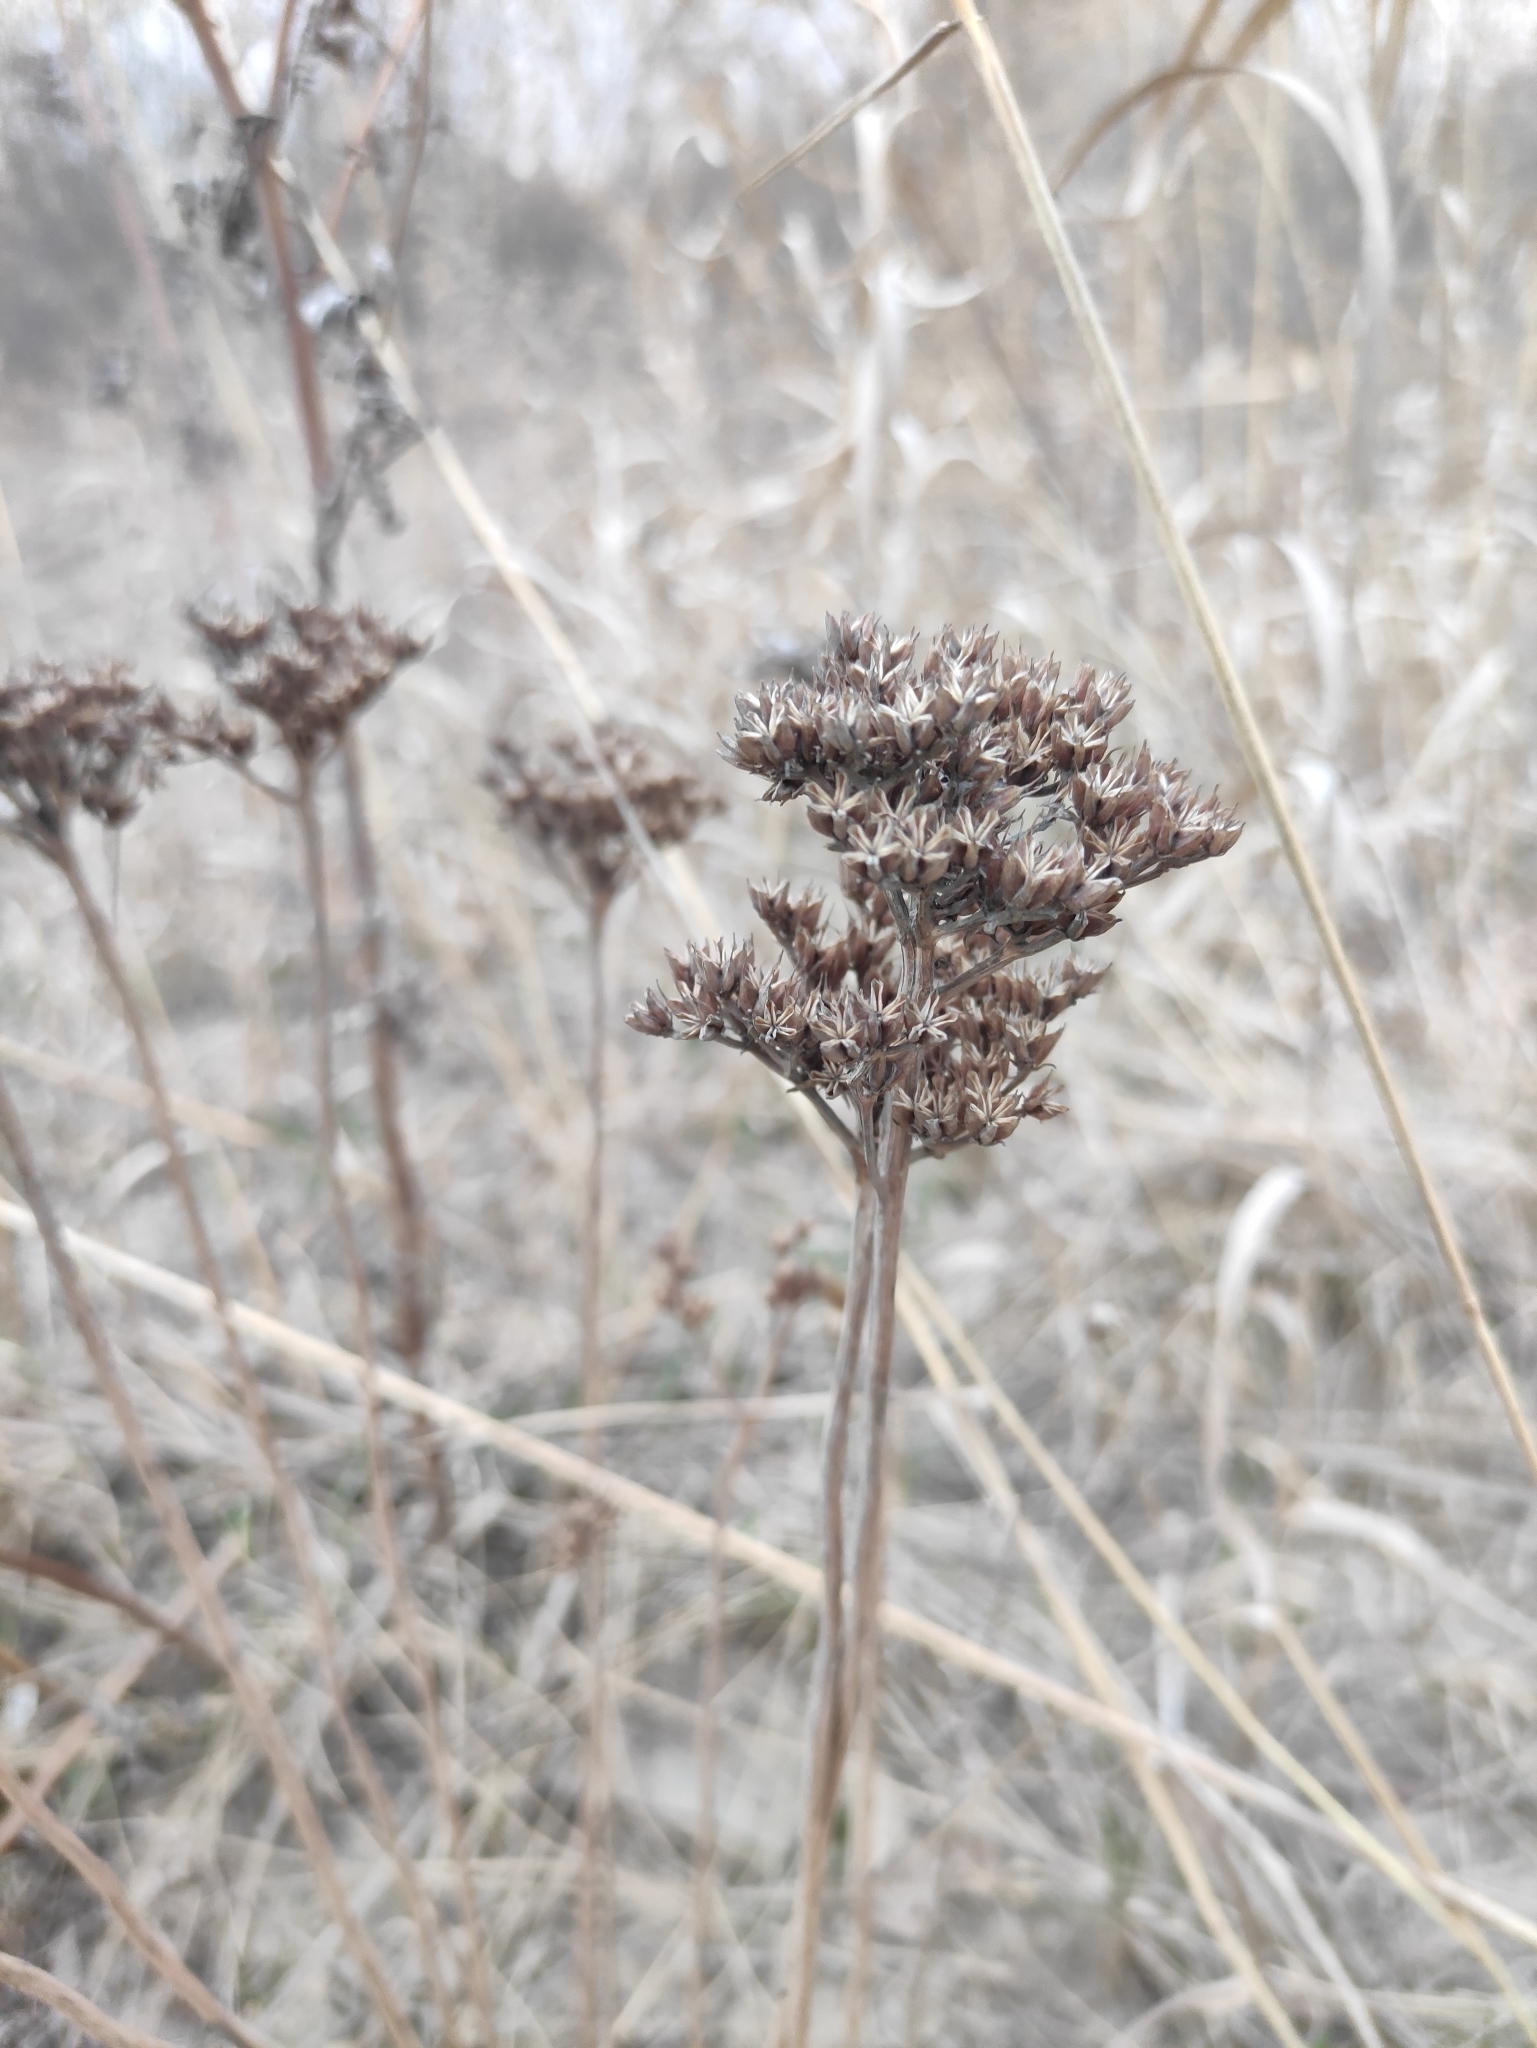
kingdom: Plantae
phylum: Tracheophyta
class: Magnoliopsida
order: Saxifragales
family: Crassulaceae
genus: Phedimus
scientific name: Phedimus aizoon
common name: Orpin aizoon
